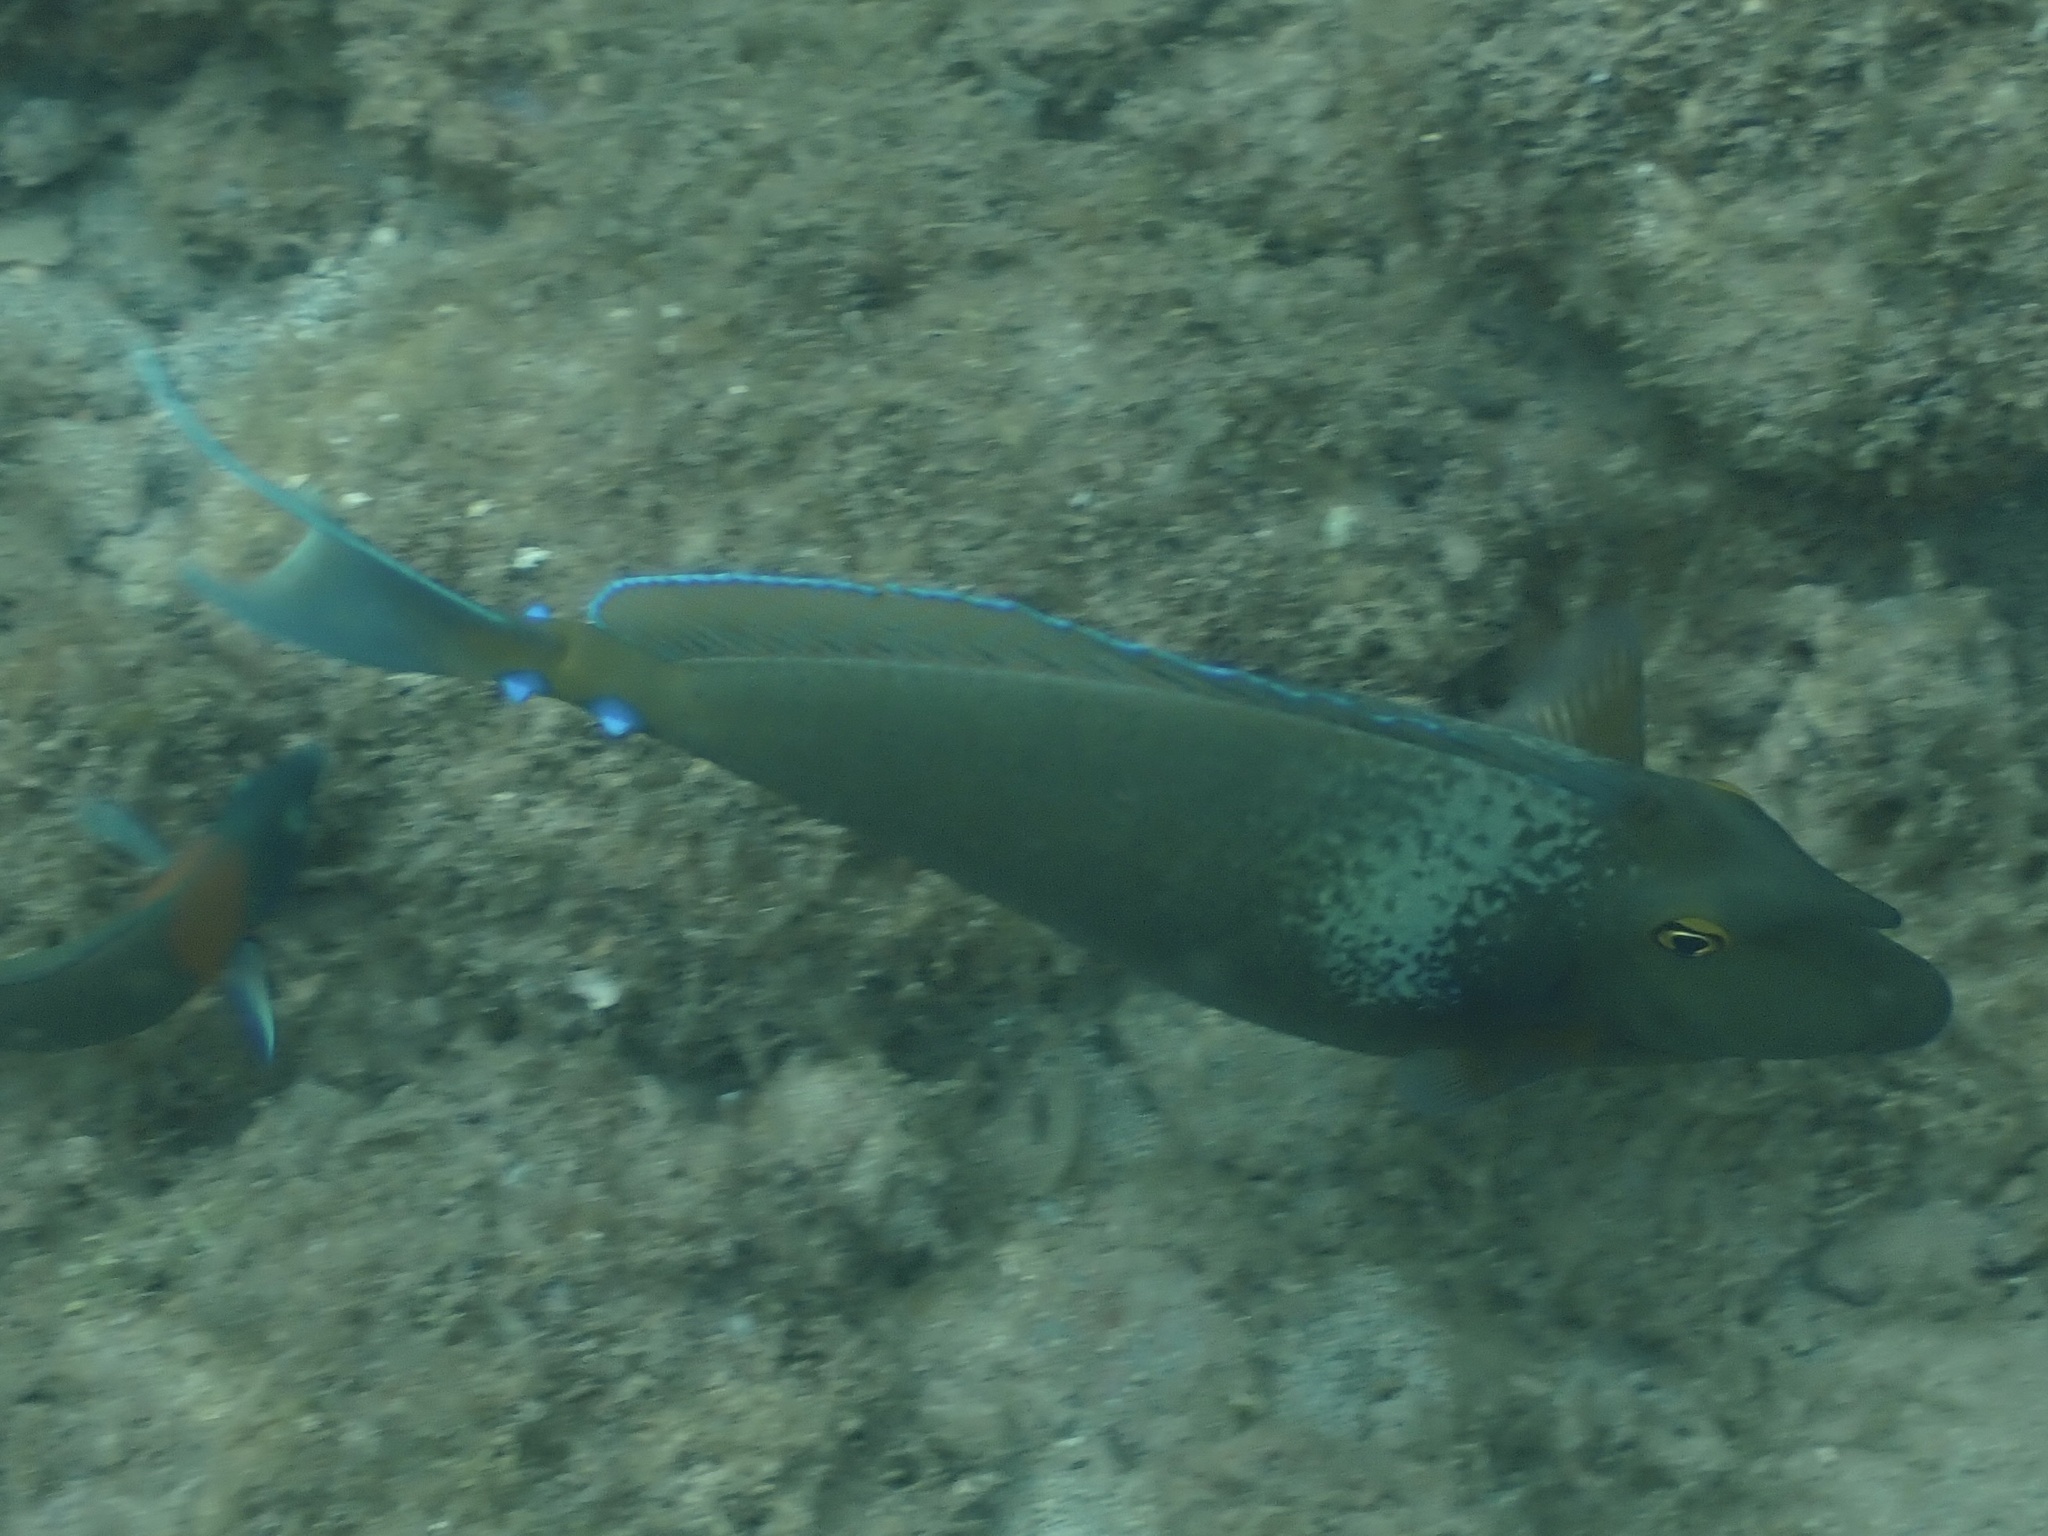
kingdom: Animalia
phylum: Chordata
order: Perciformes
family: Acanthuridae
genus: Naso
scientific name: Naso unicornis
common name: Bluespine unicornfish
